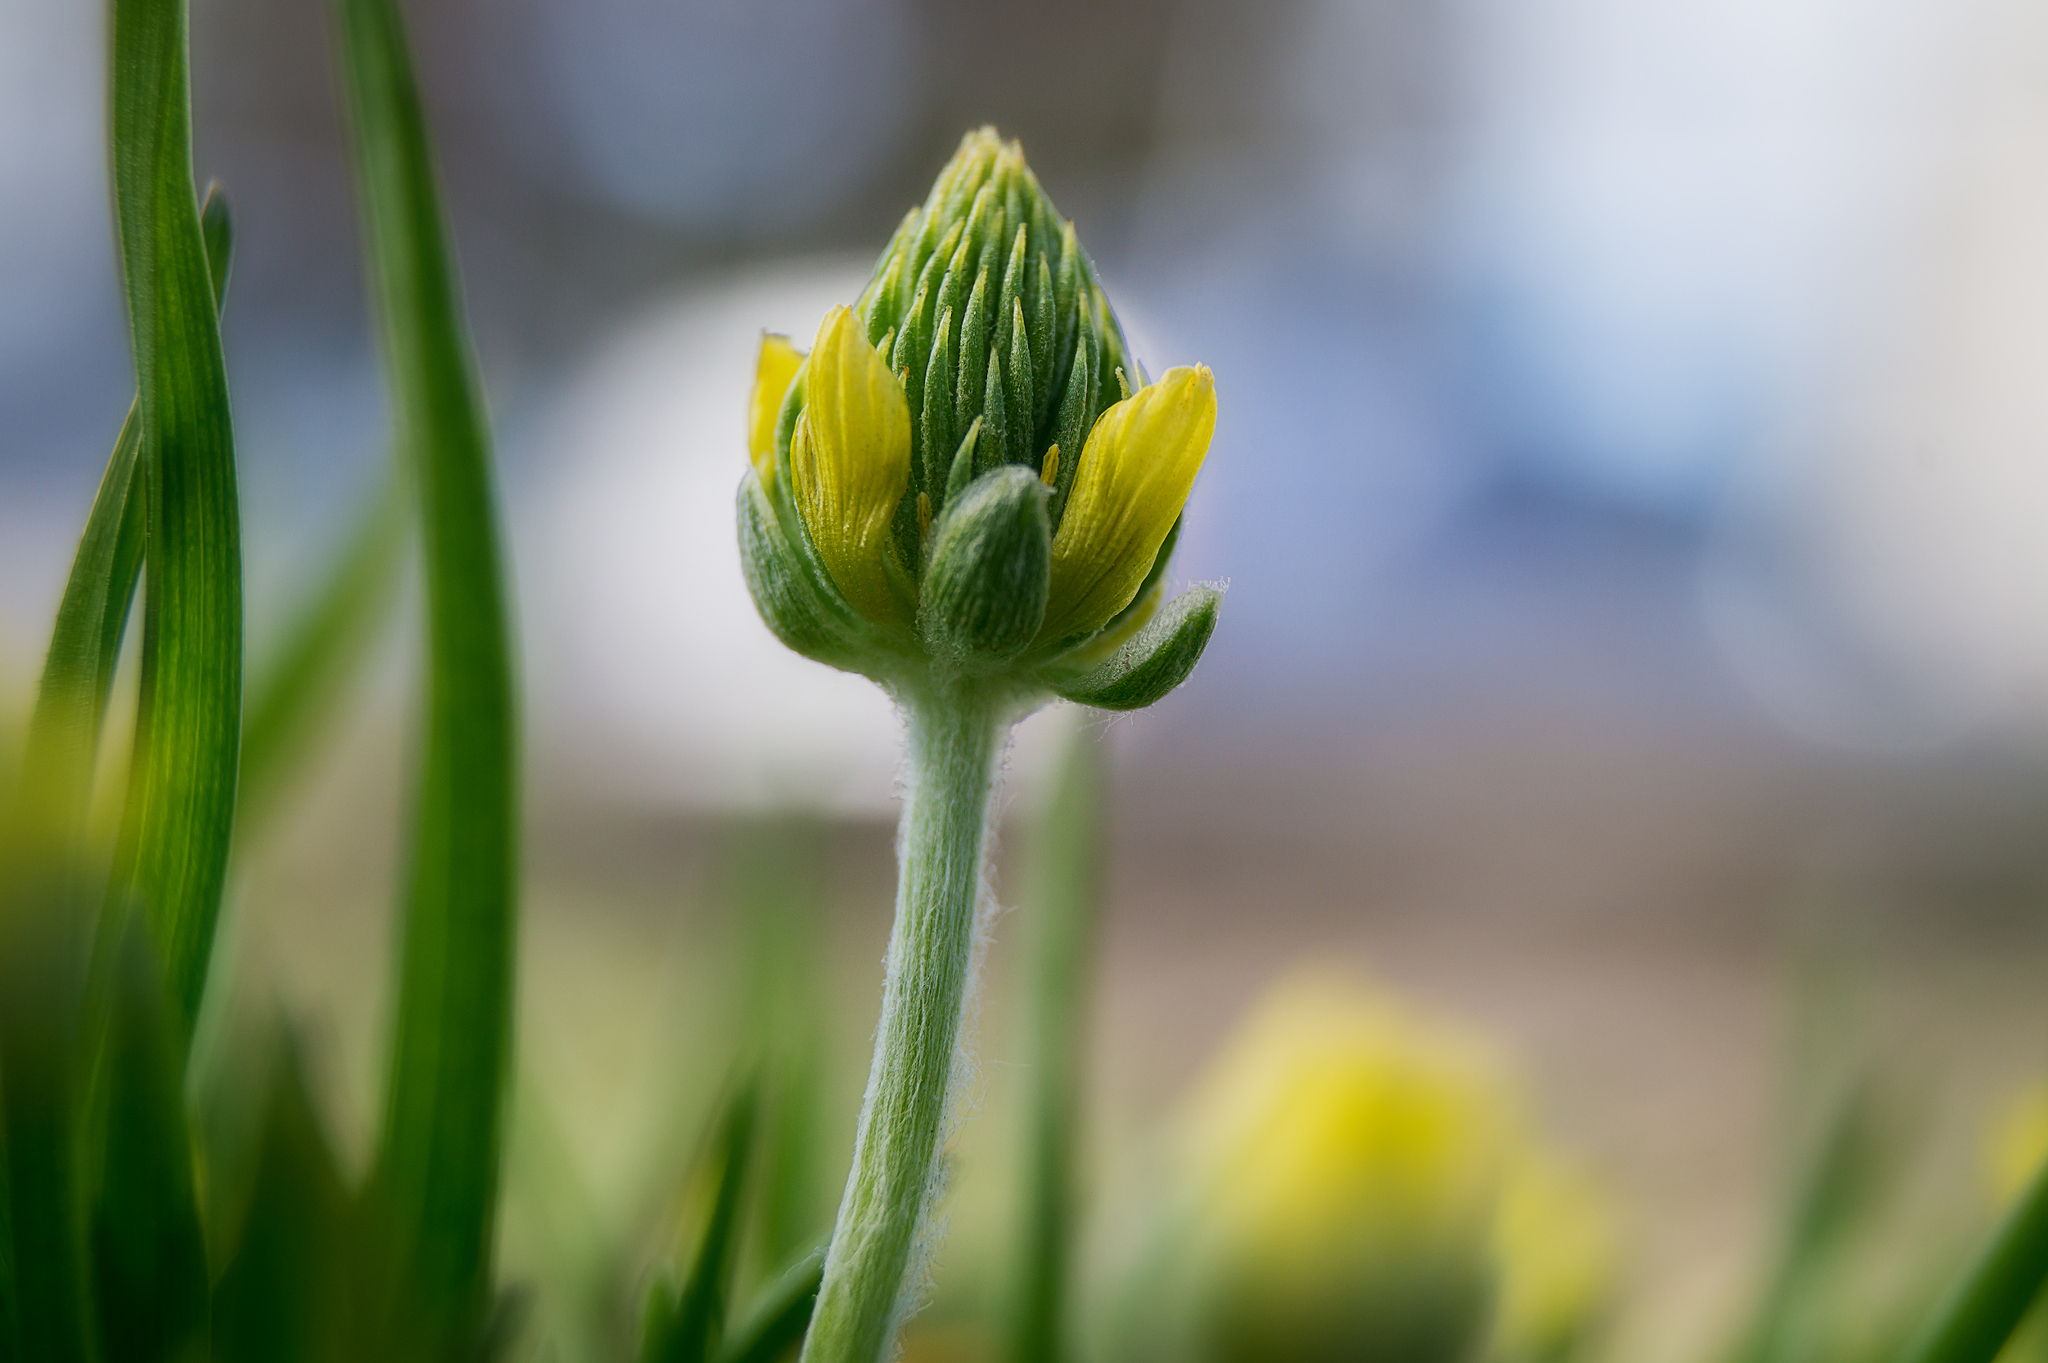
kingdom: Plantae
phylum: Tracheophyta
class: Magnoliopsida
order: Ranunculales
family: Ranunculaceae
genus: Ceratocephala
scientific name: Ceratocephala falcata
